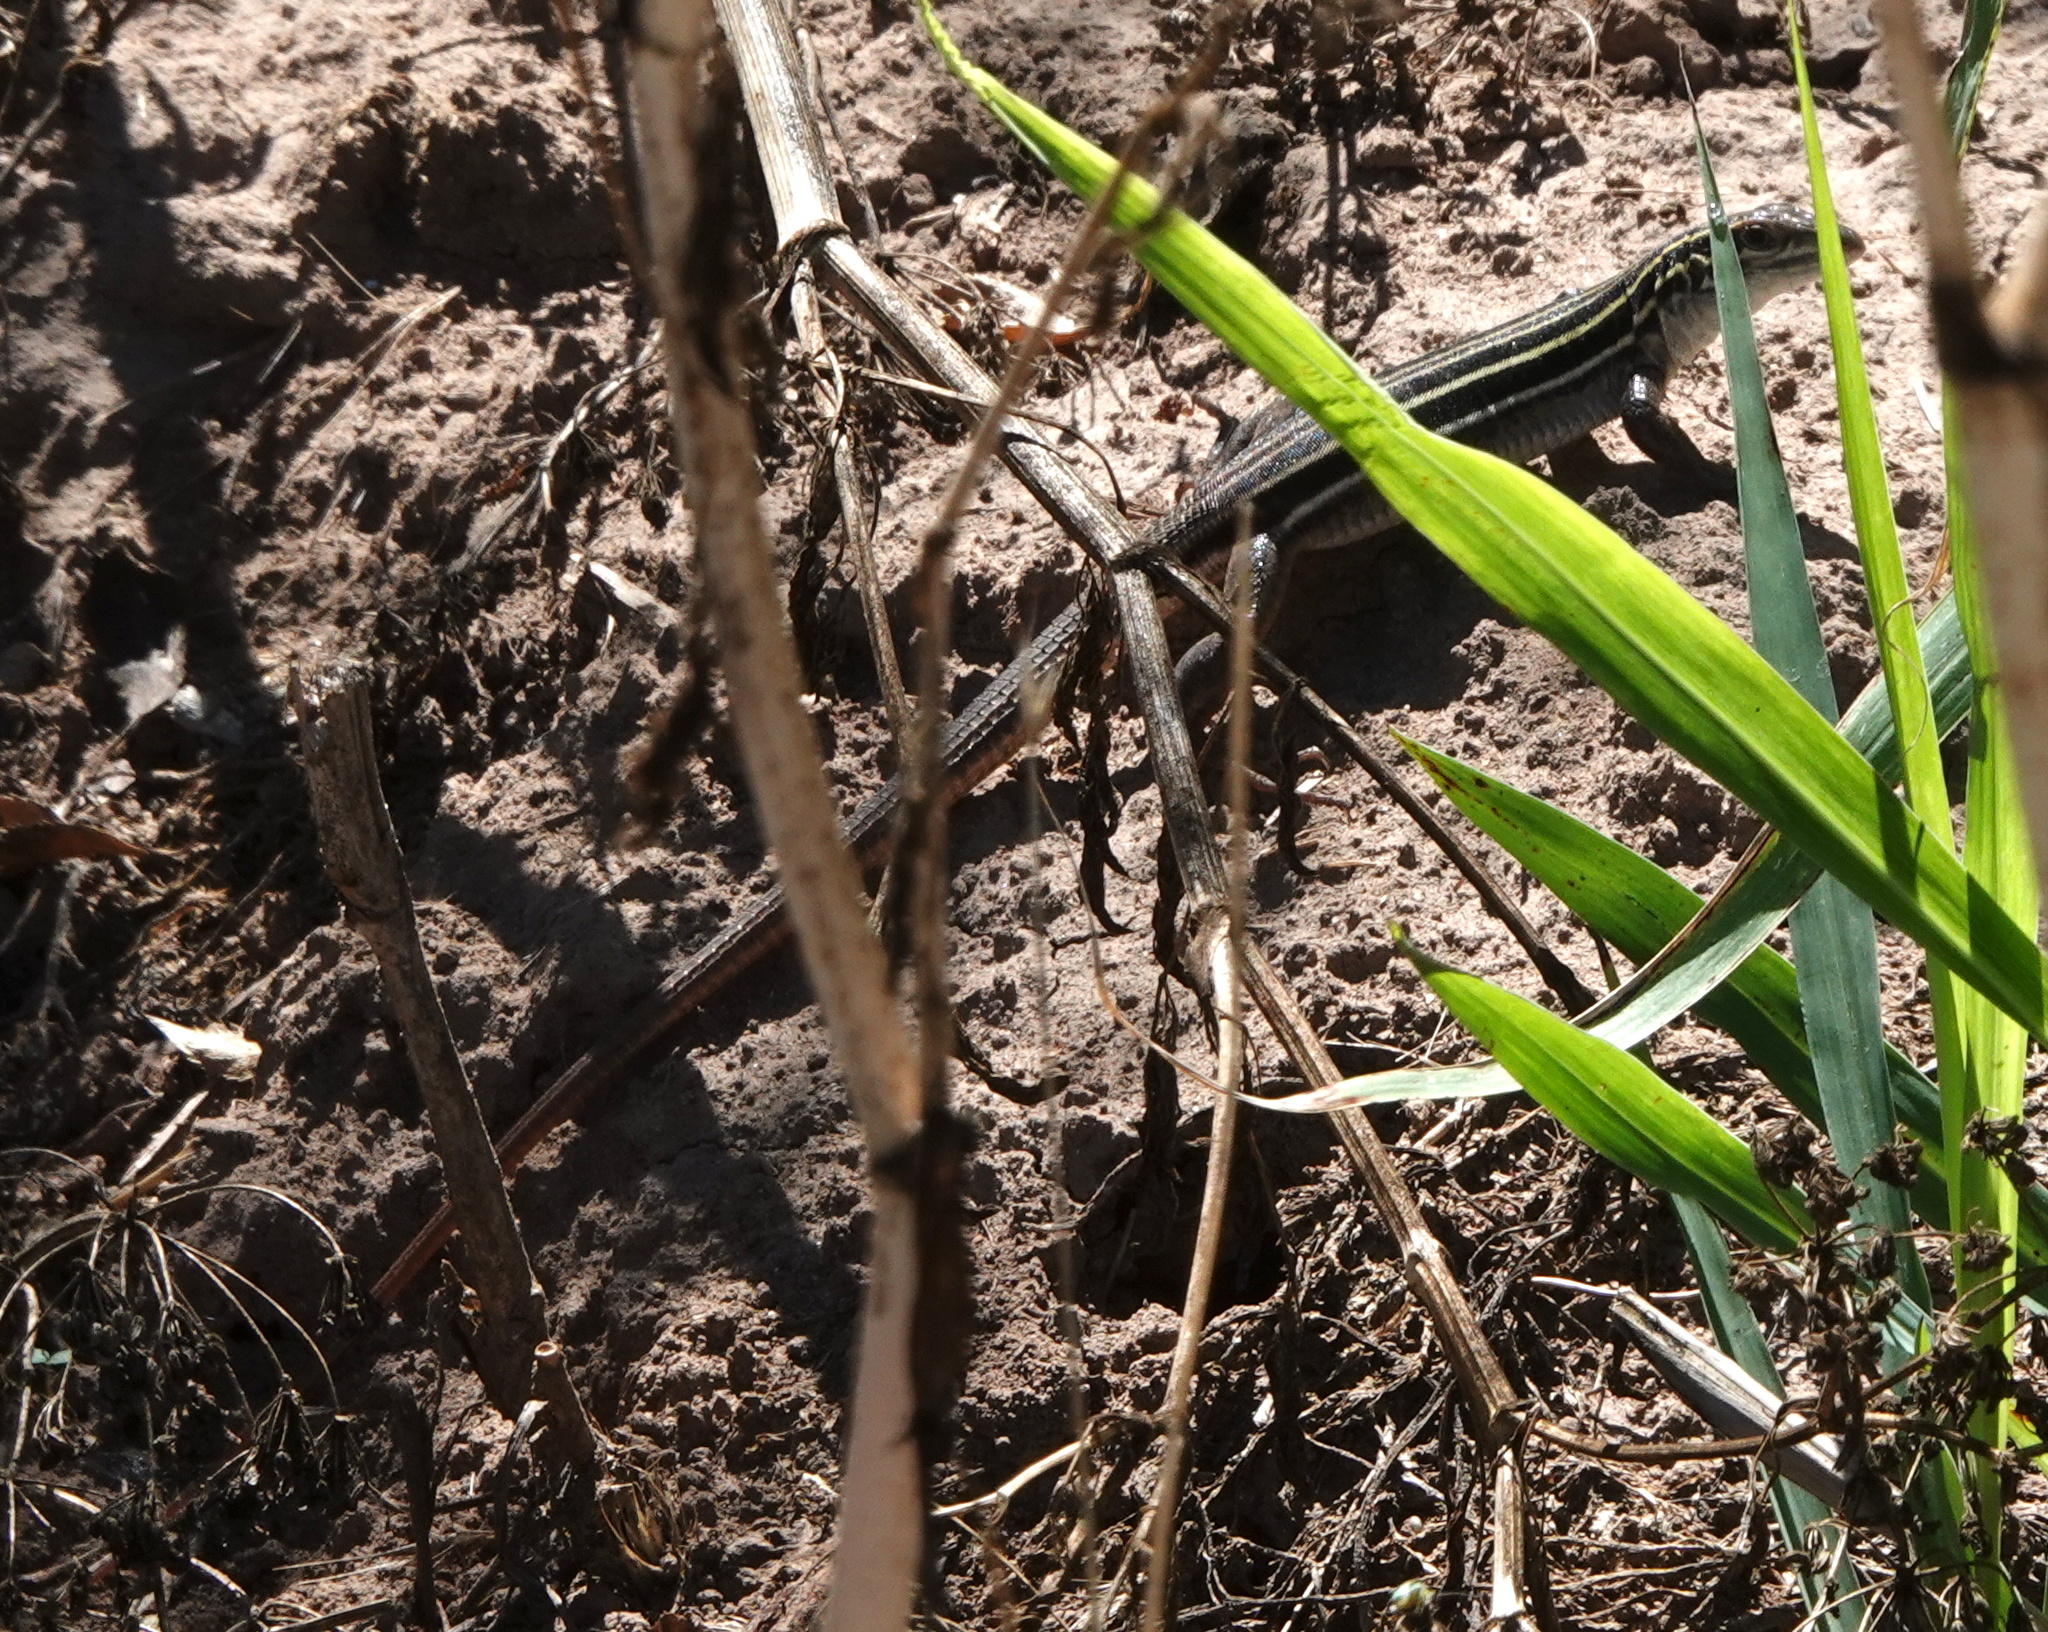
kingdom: Animalia
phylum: Chordata
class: Squamata
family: Teiidae
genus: Aspidoscelis
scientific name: Aspidoscelis uniparens
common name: Desert grassland whiptail
